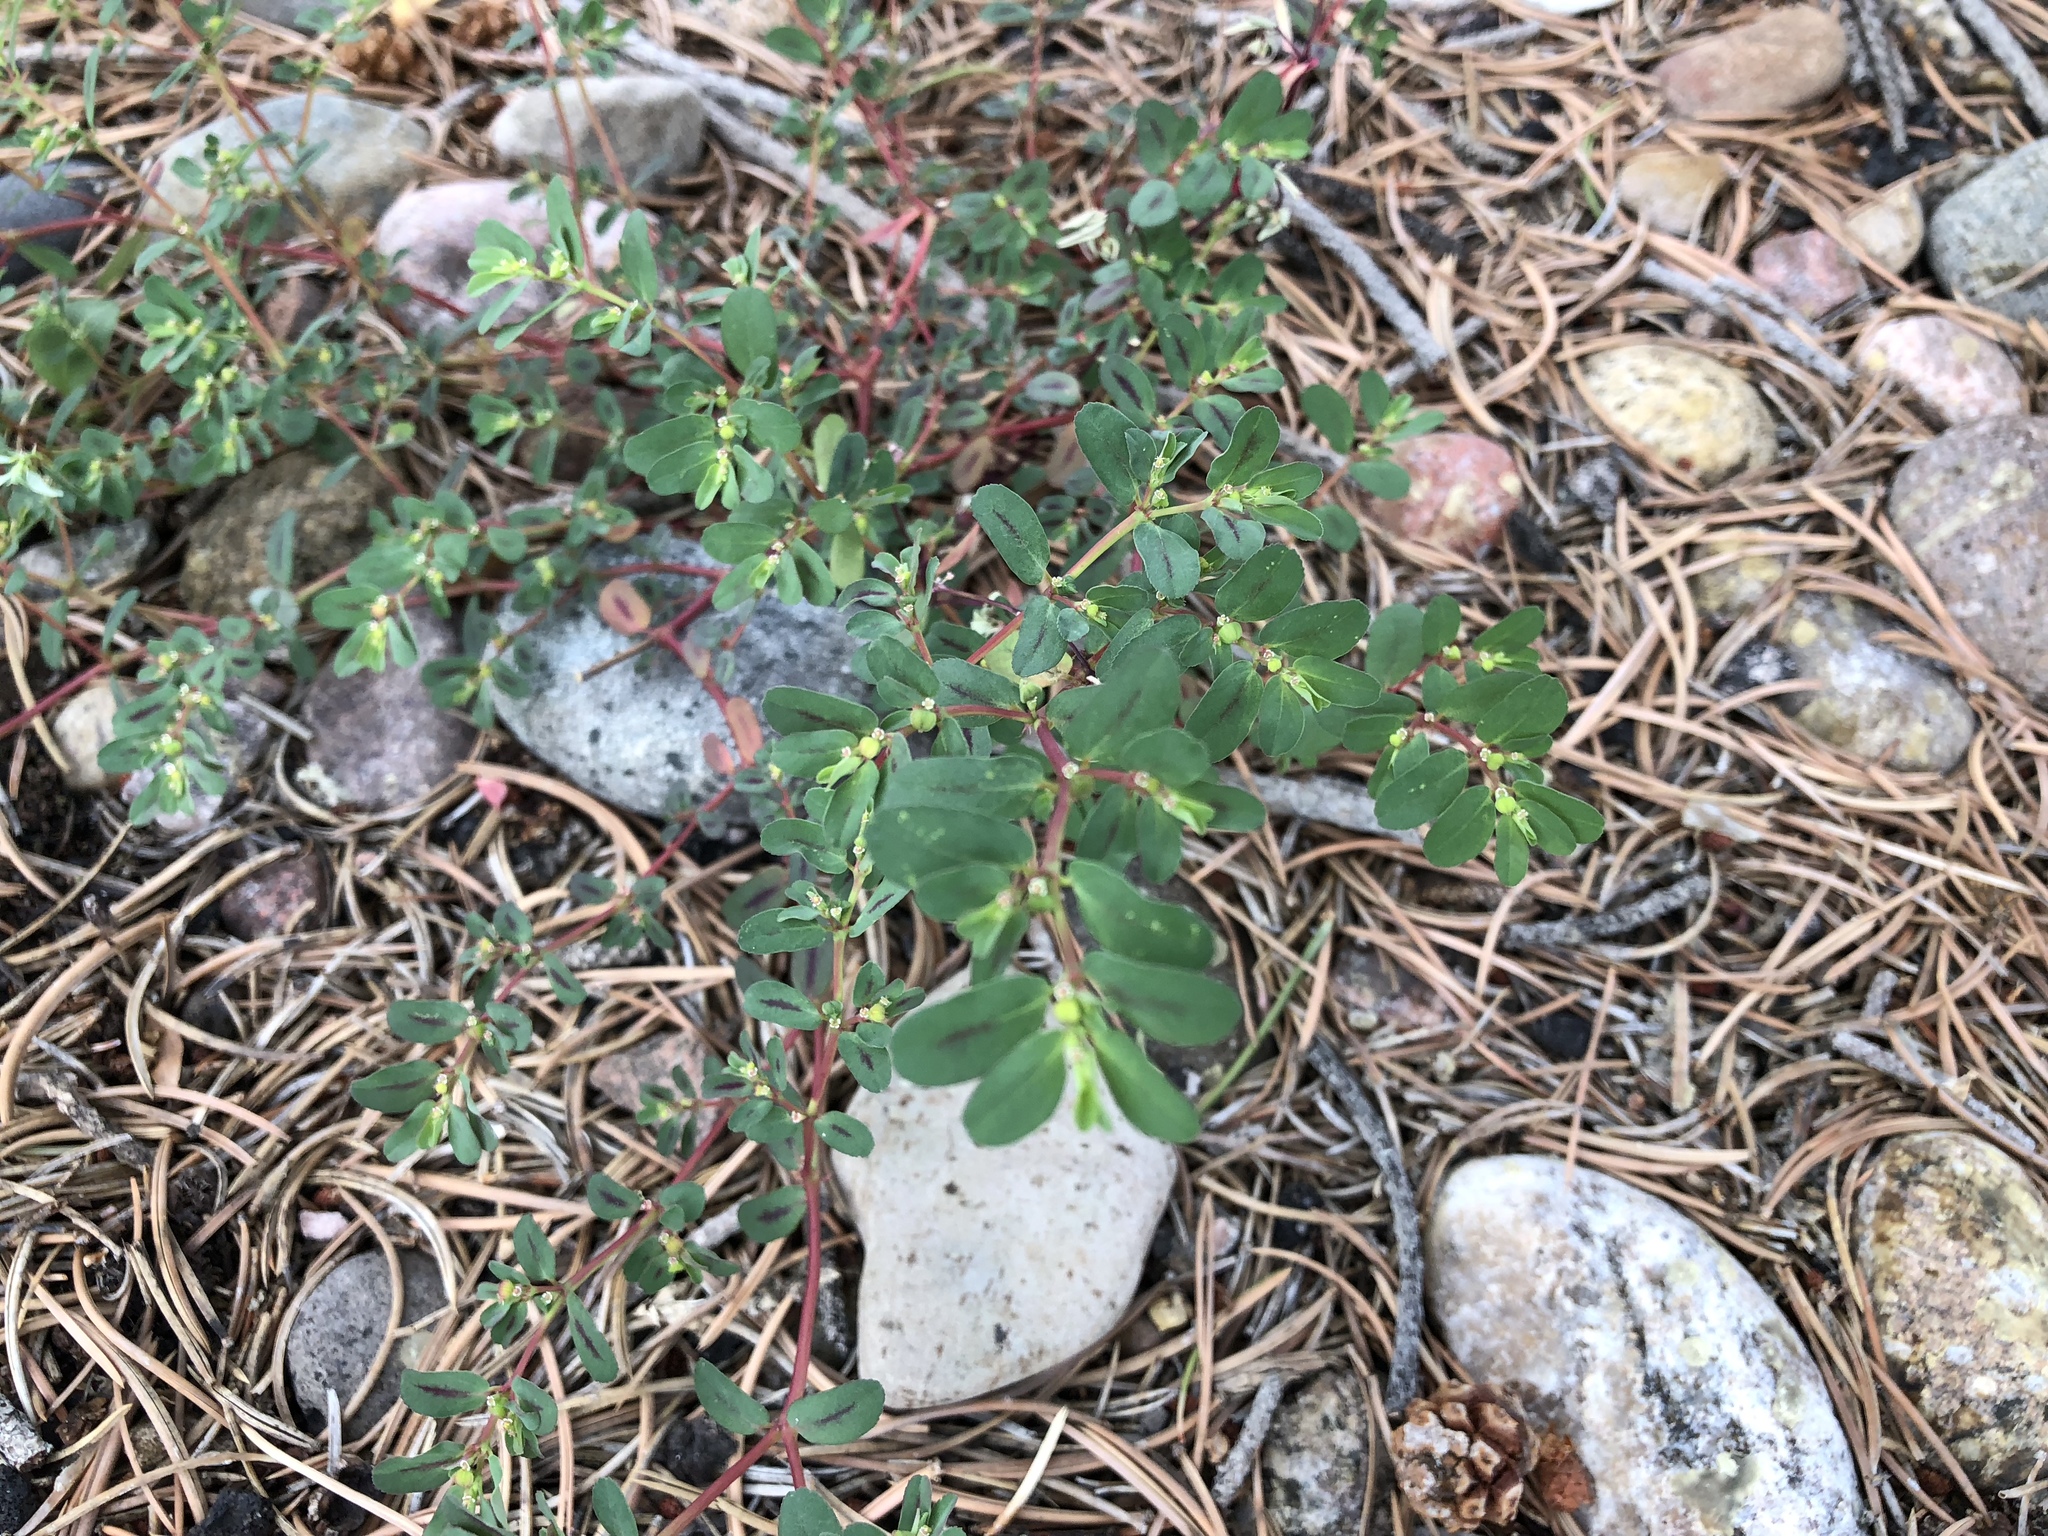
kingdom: Plantae
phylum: Tracheophyta
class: Magnoliopsida
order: Malpighiales
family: Euphorbiaceae
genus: Euphorbia
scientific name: Euphorbia serpillifolia
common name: Thyme-leaf spurge
